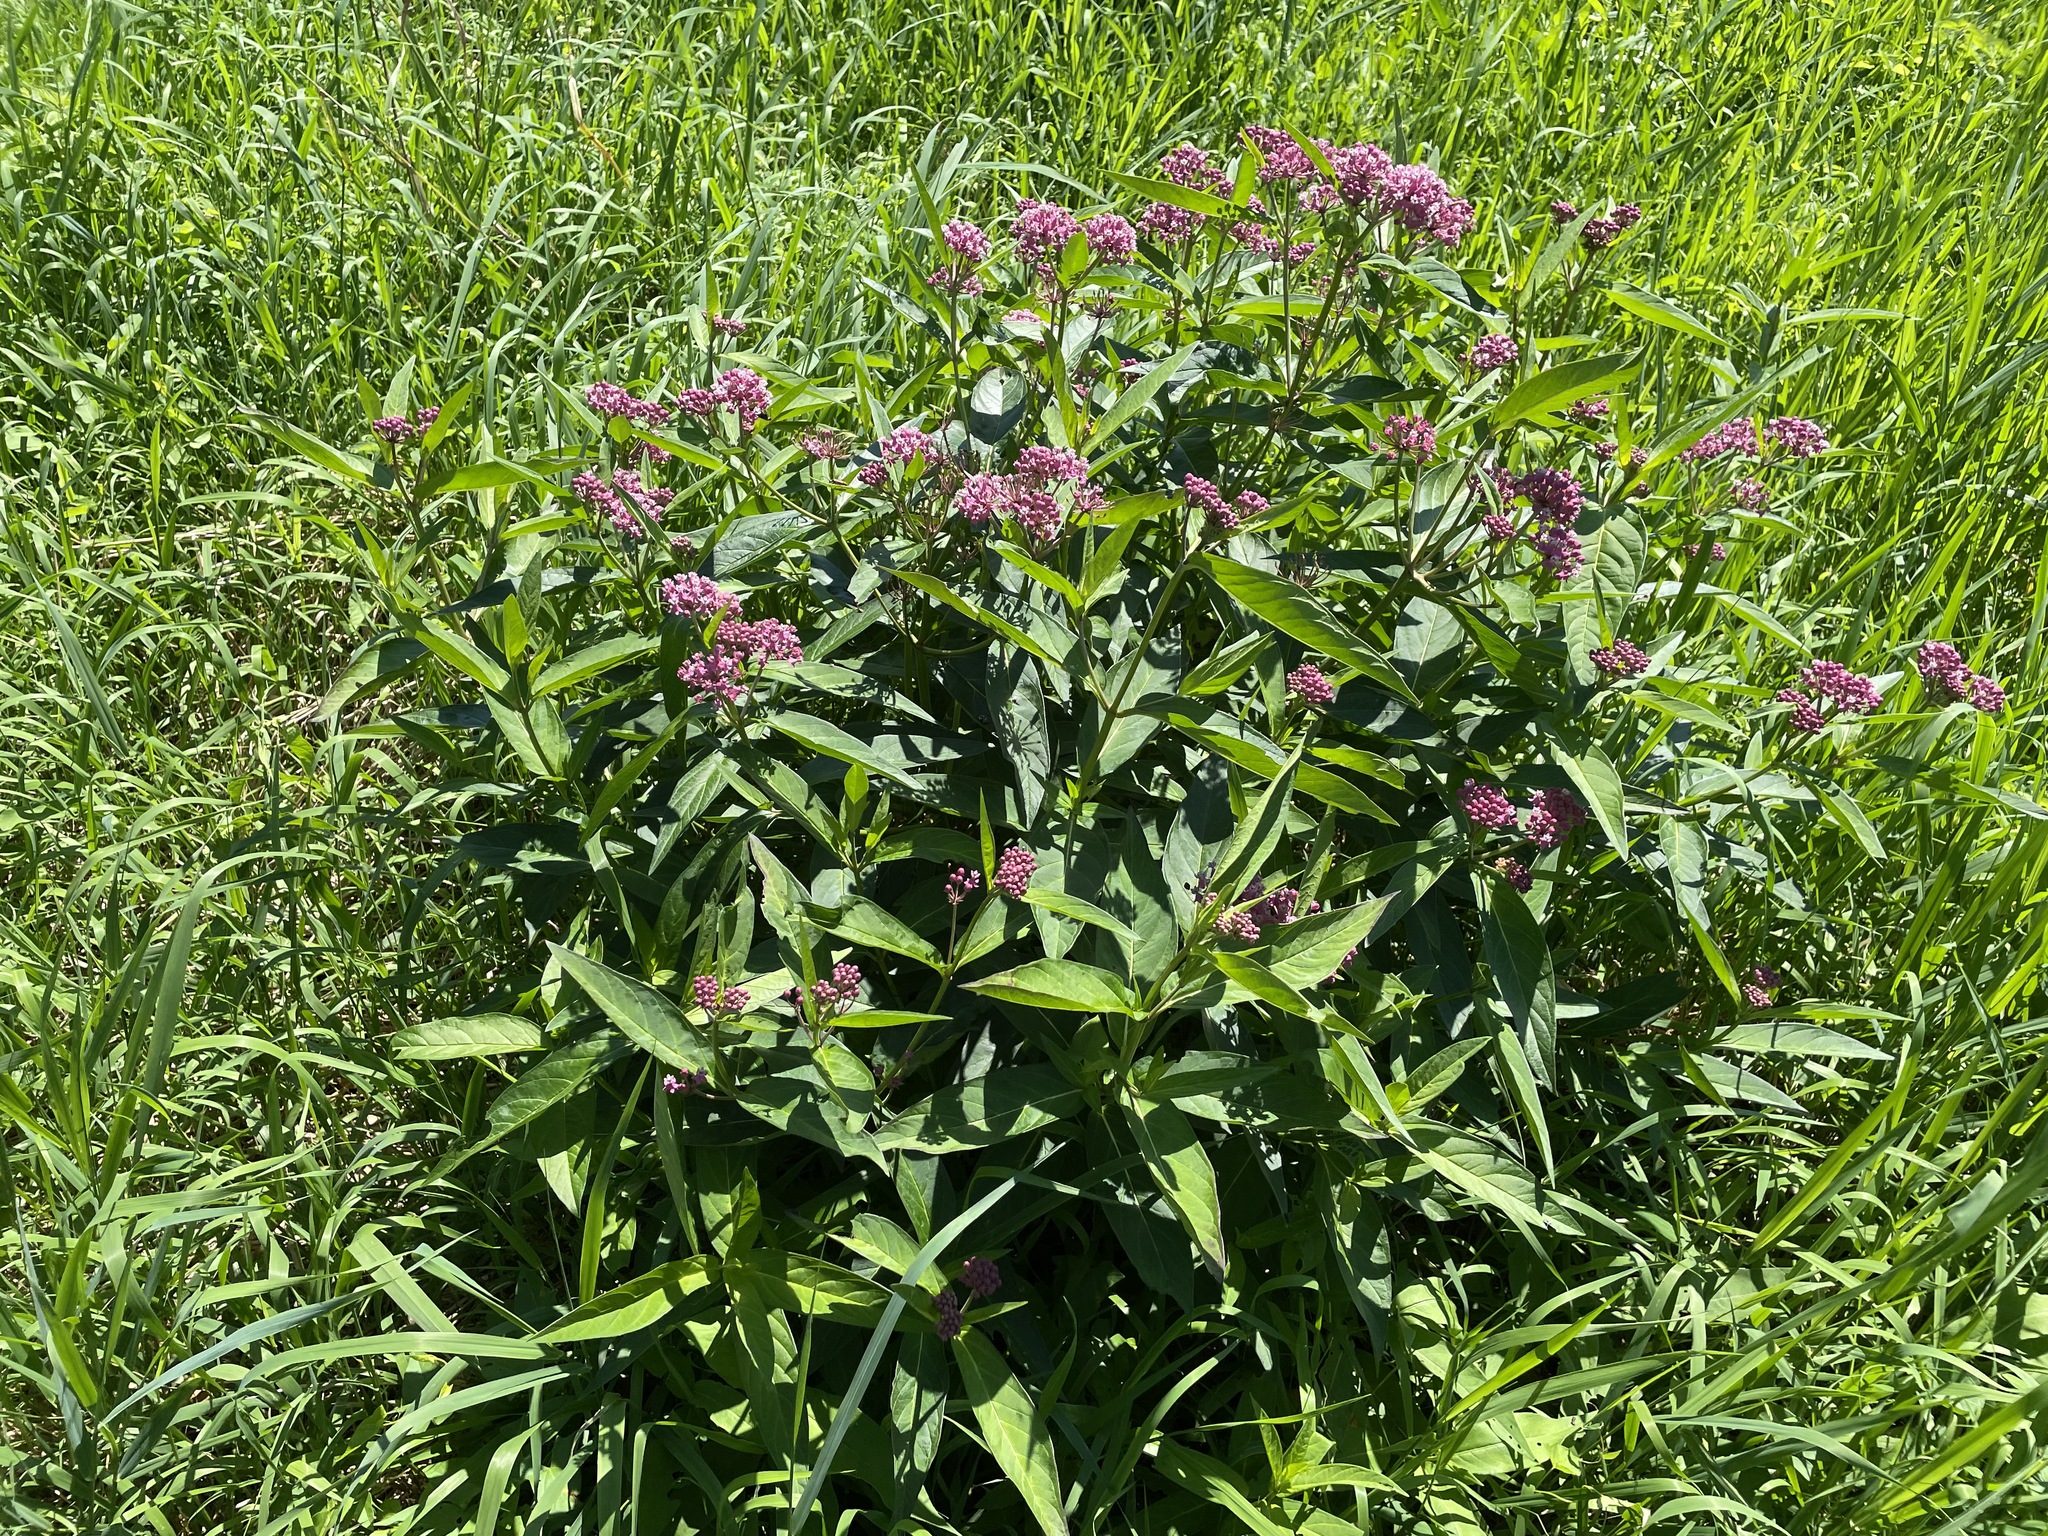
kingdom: Plantae
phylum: Tracheophyta
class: Magnoliopsida
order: Gentianales
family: Apocynaceae
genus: Asclepias
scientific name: Asclepias incarnata
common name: Swamp milkweed
